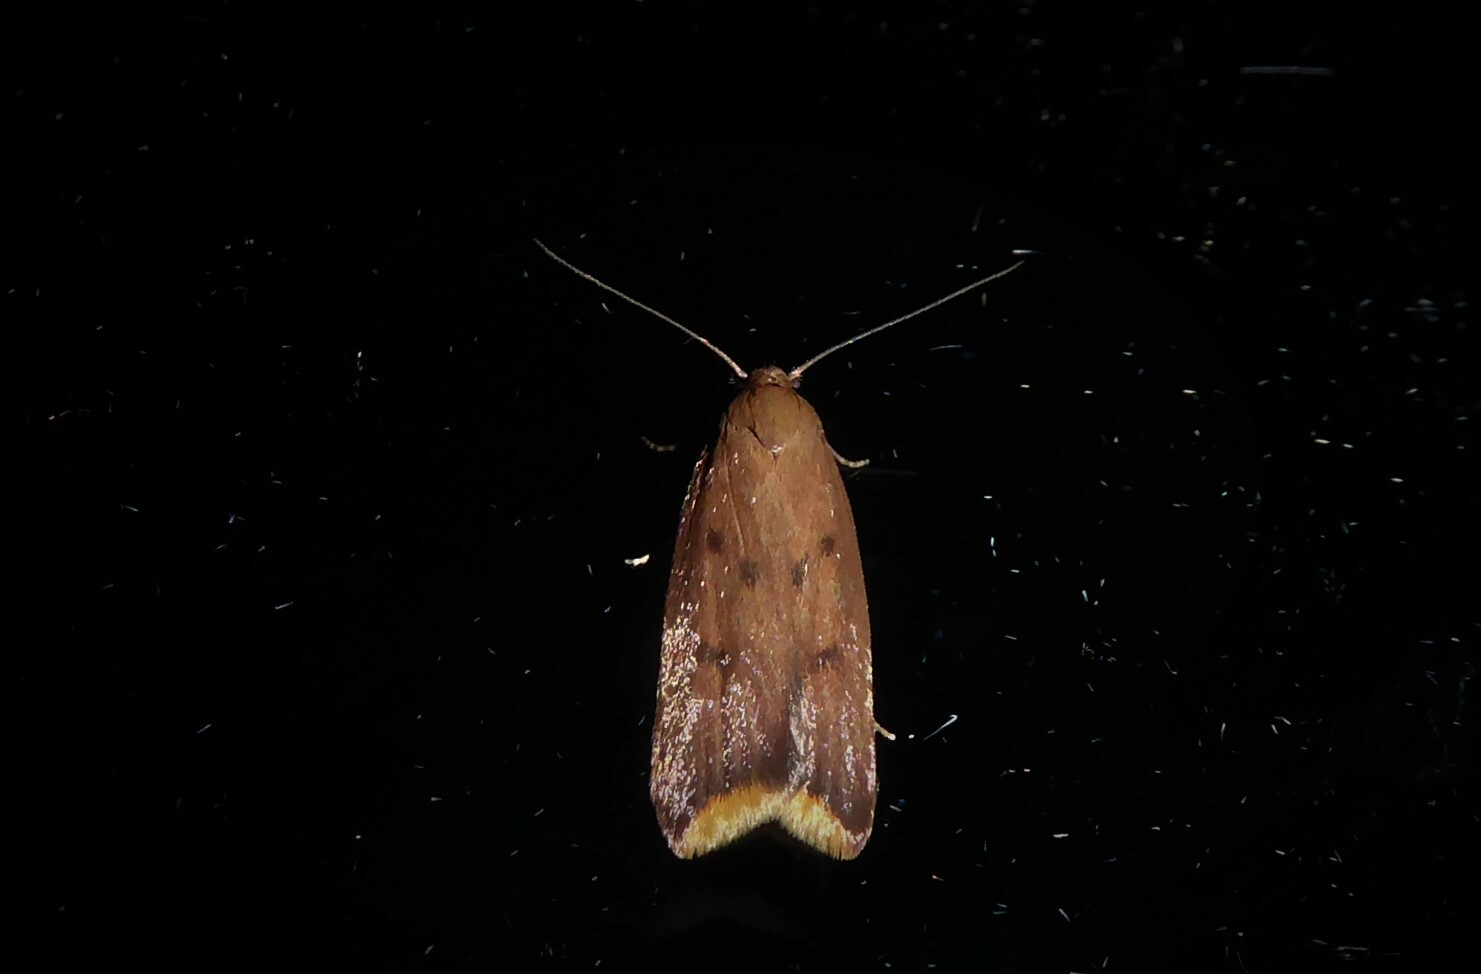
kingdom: Animalia
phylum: Arthropoda
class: Insecta
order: Lepidoptera
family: Oecophoridae
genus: Tachystola
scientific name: Tachystola acroxantha
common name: Ruddy streak
